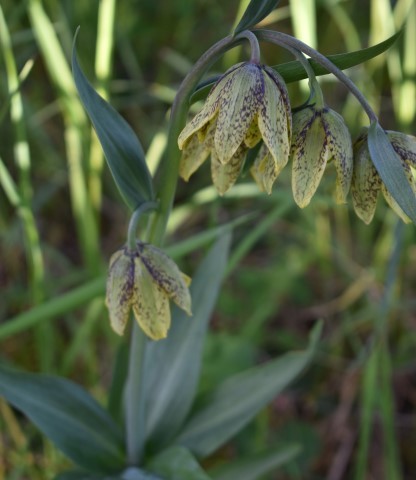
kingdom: Plantae
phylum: Tracheophyta
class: Liliopsida
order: Liliales
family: Liliaceae
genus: Fritillaria
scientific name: Fritillaria affinis
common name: Ojai fritillary
